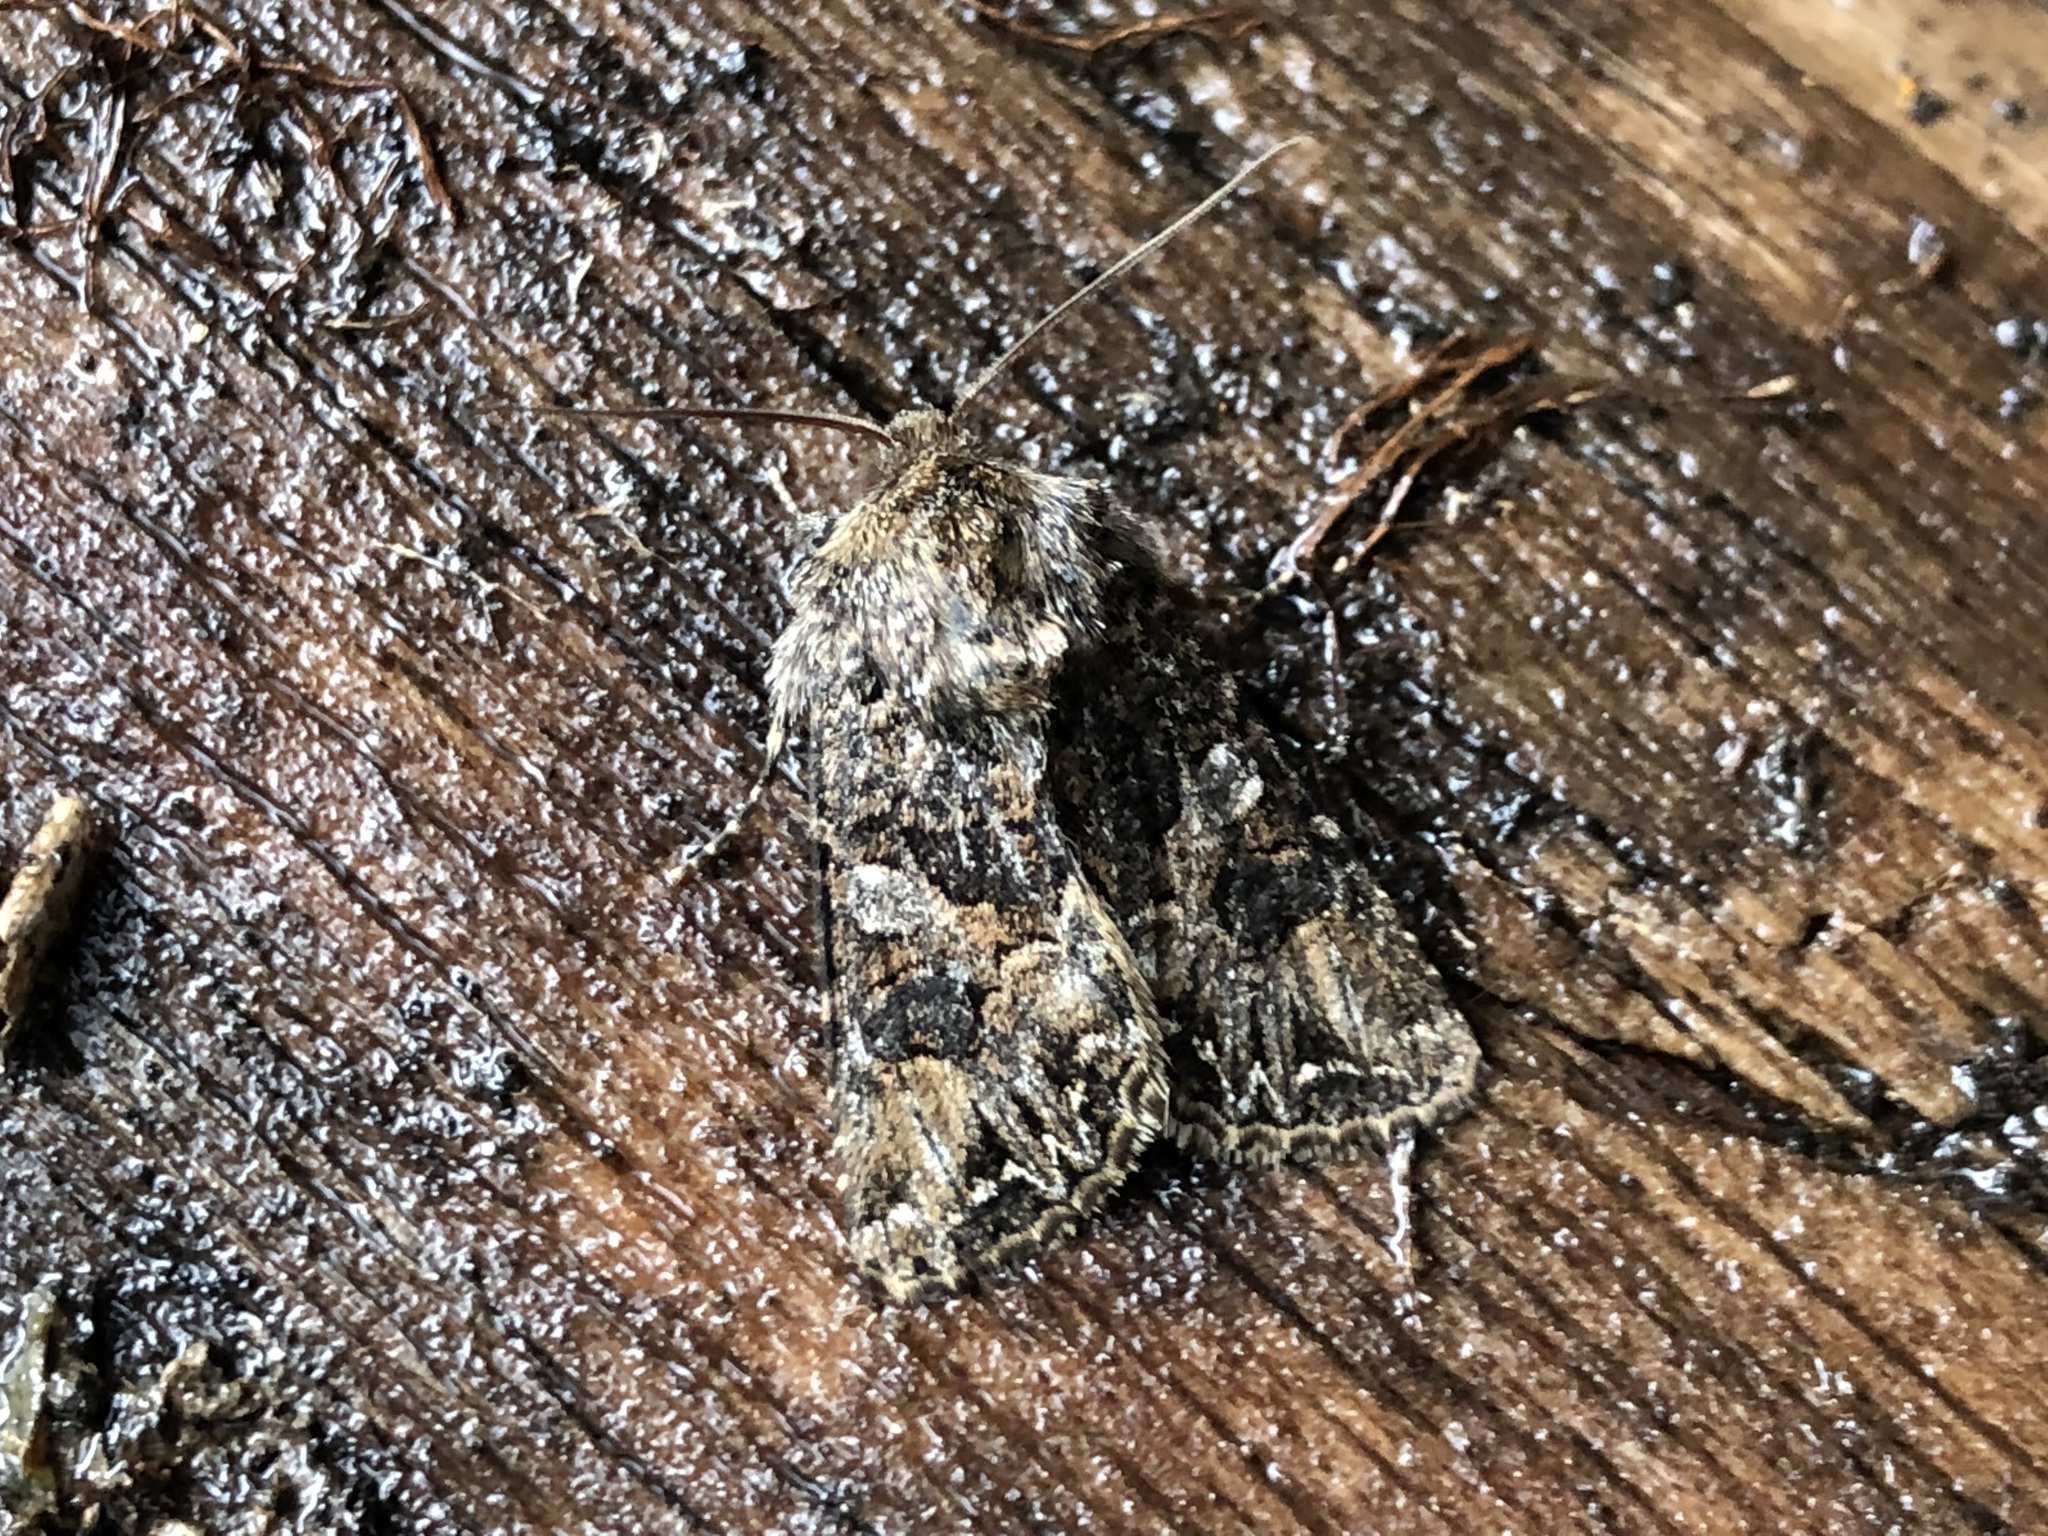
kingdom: Animalia
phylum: Arthropoda
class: Insecta
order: Lepidoptera
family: Noctuidae
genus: Anarta
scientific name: Anarta odontites
